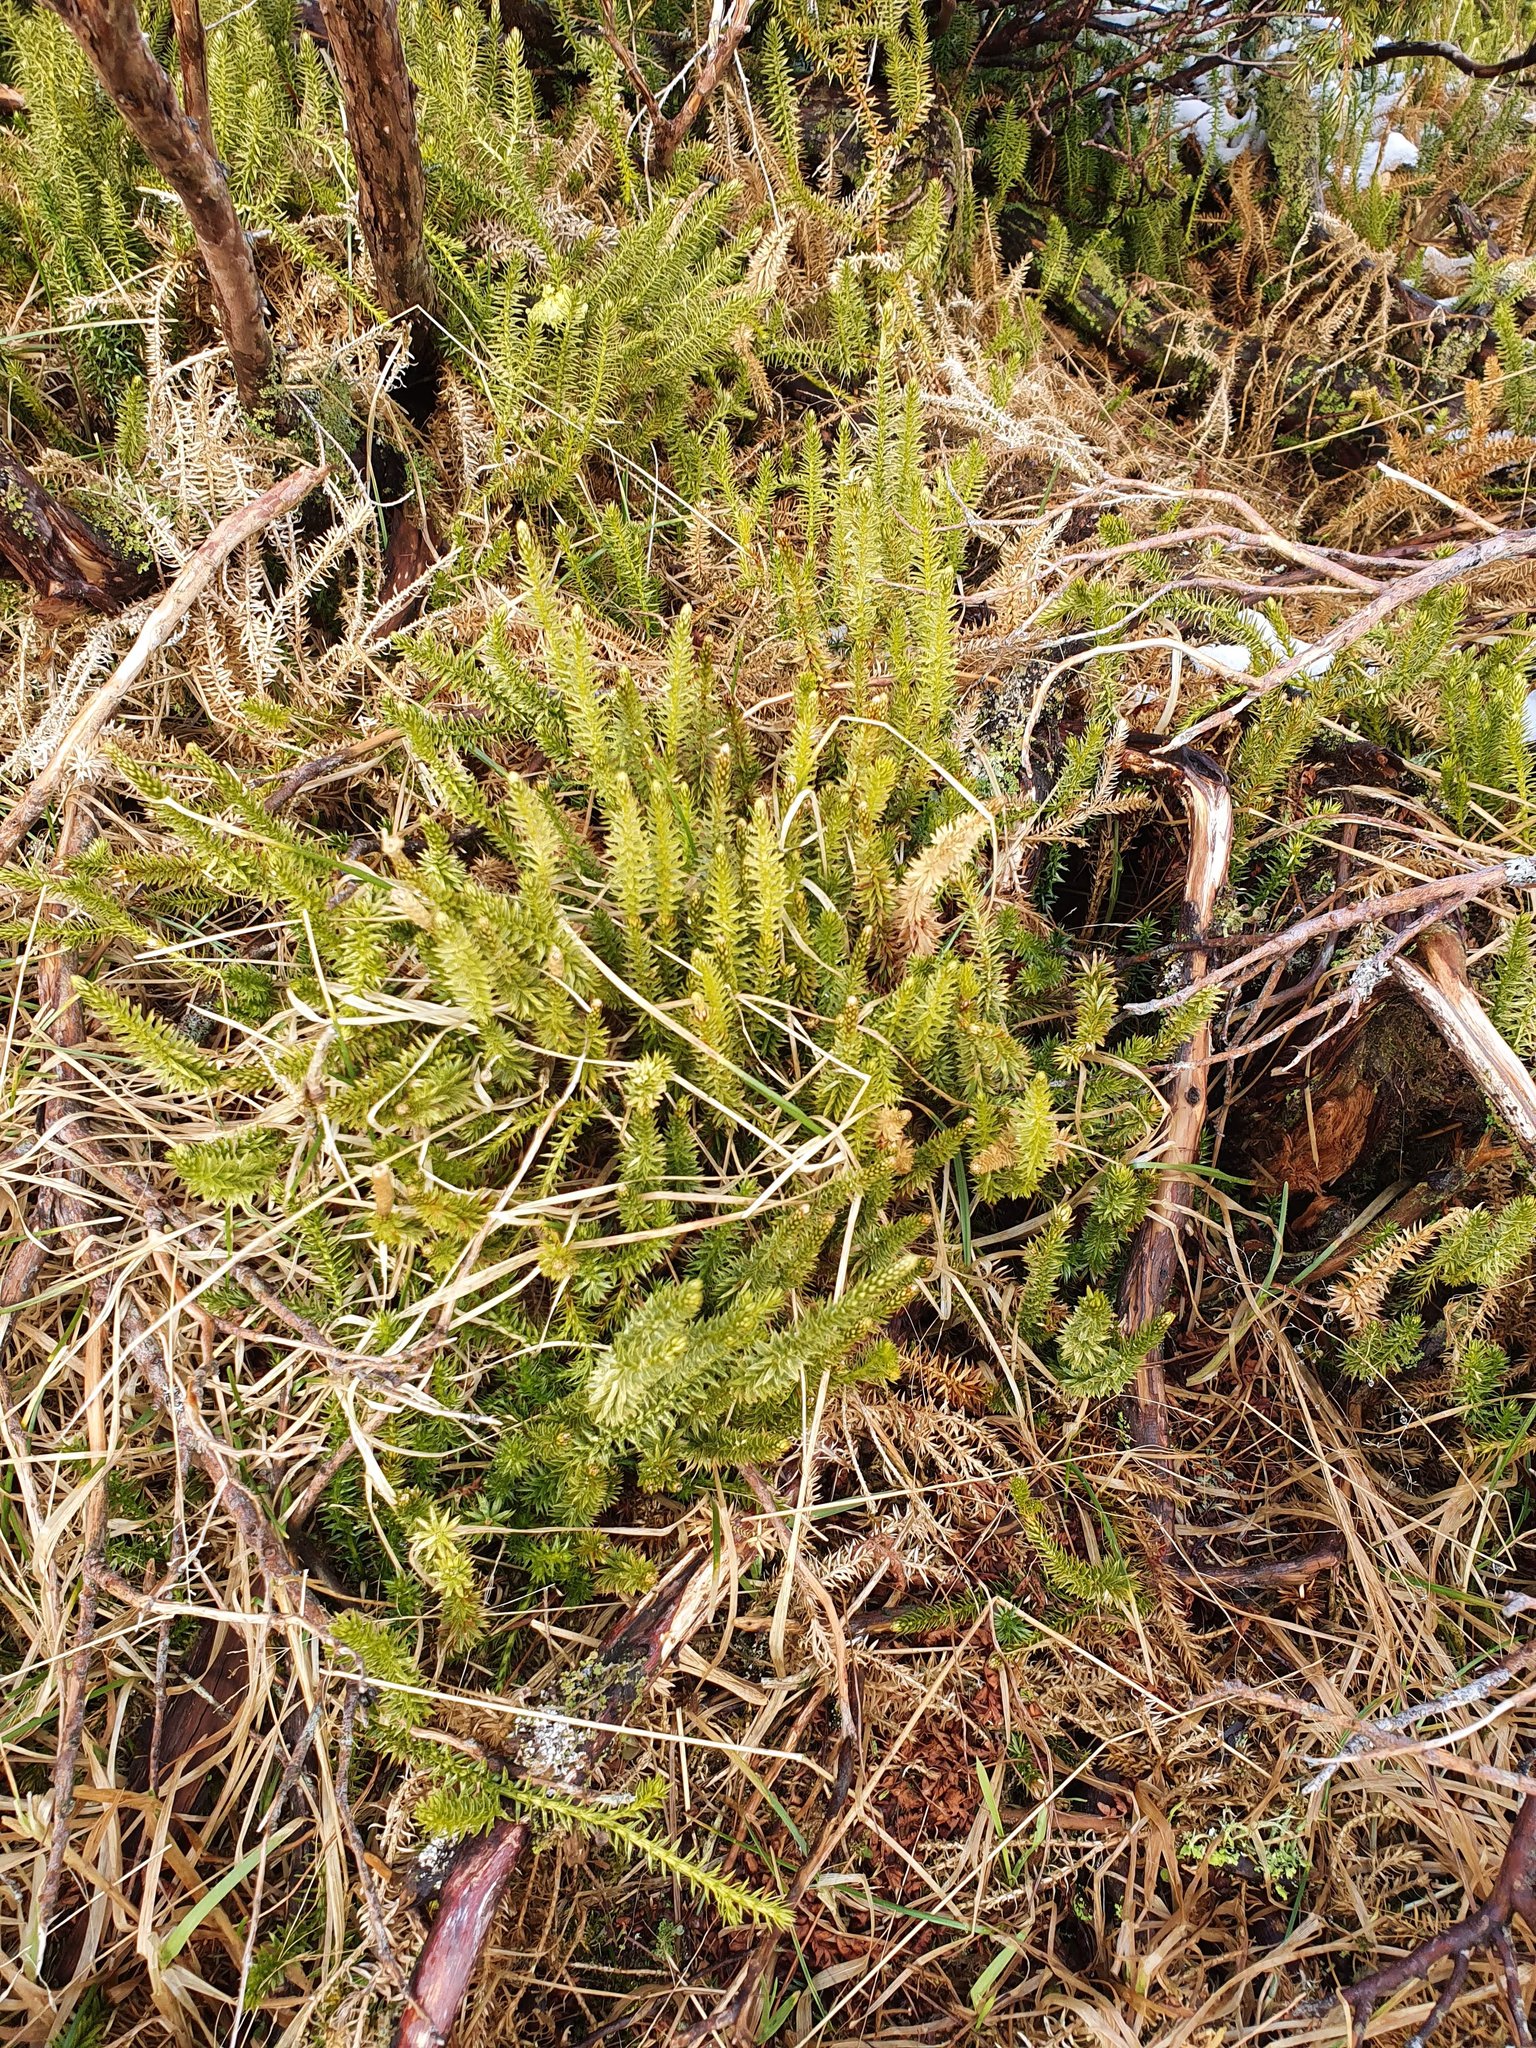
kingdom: Plantae
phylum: Tracheophyta
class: Lycopodiopsida
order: Lycopodiales
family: Lycopodiaceae
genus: Spinulum
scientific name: Spinulum annotinum
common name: Interrupted club-moss
